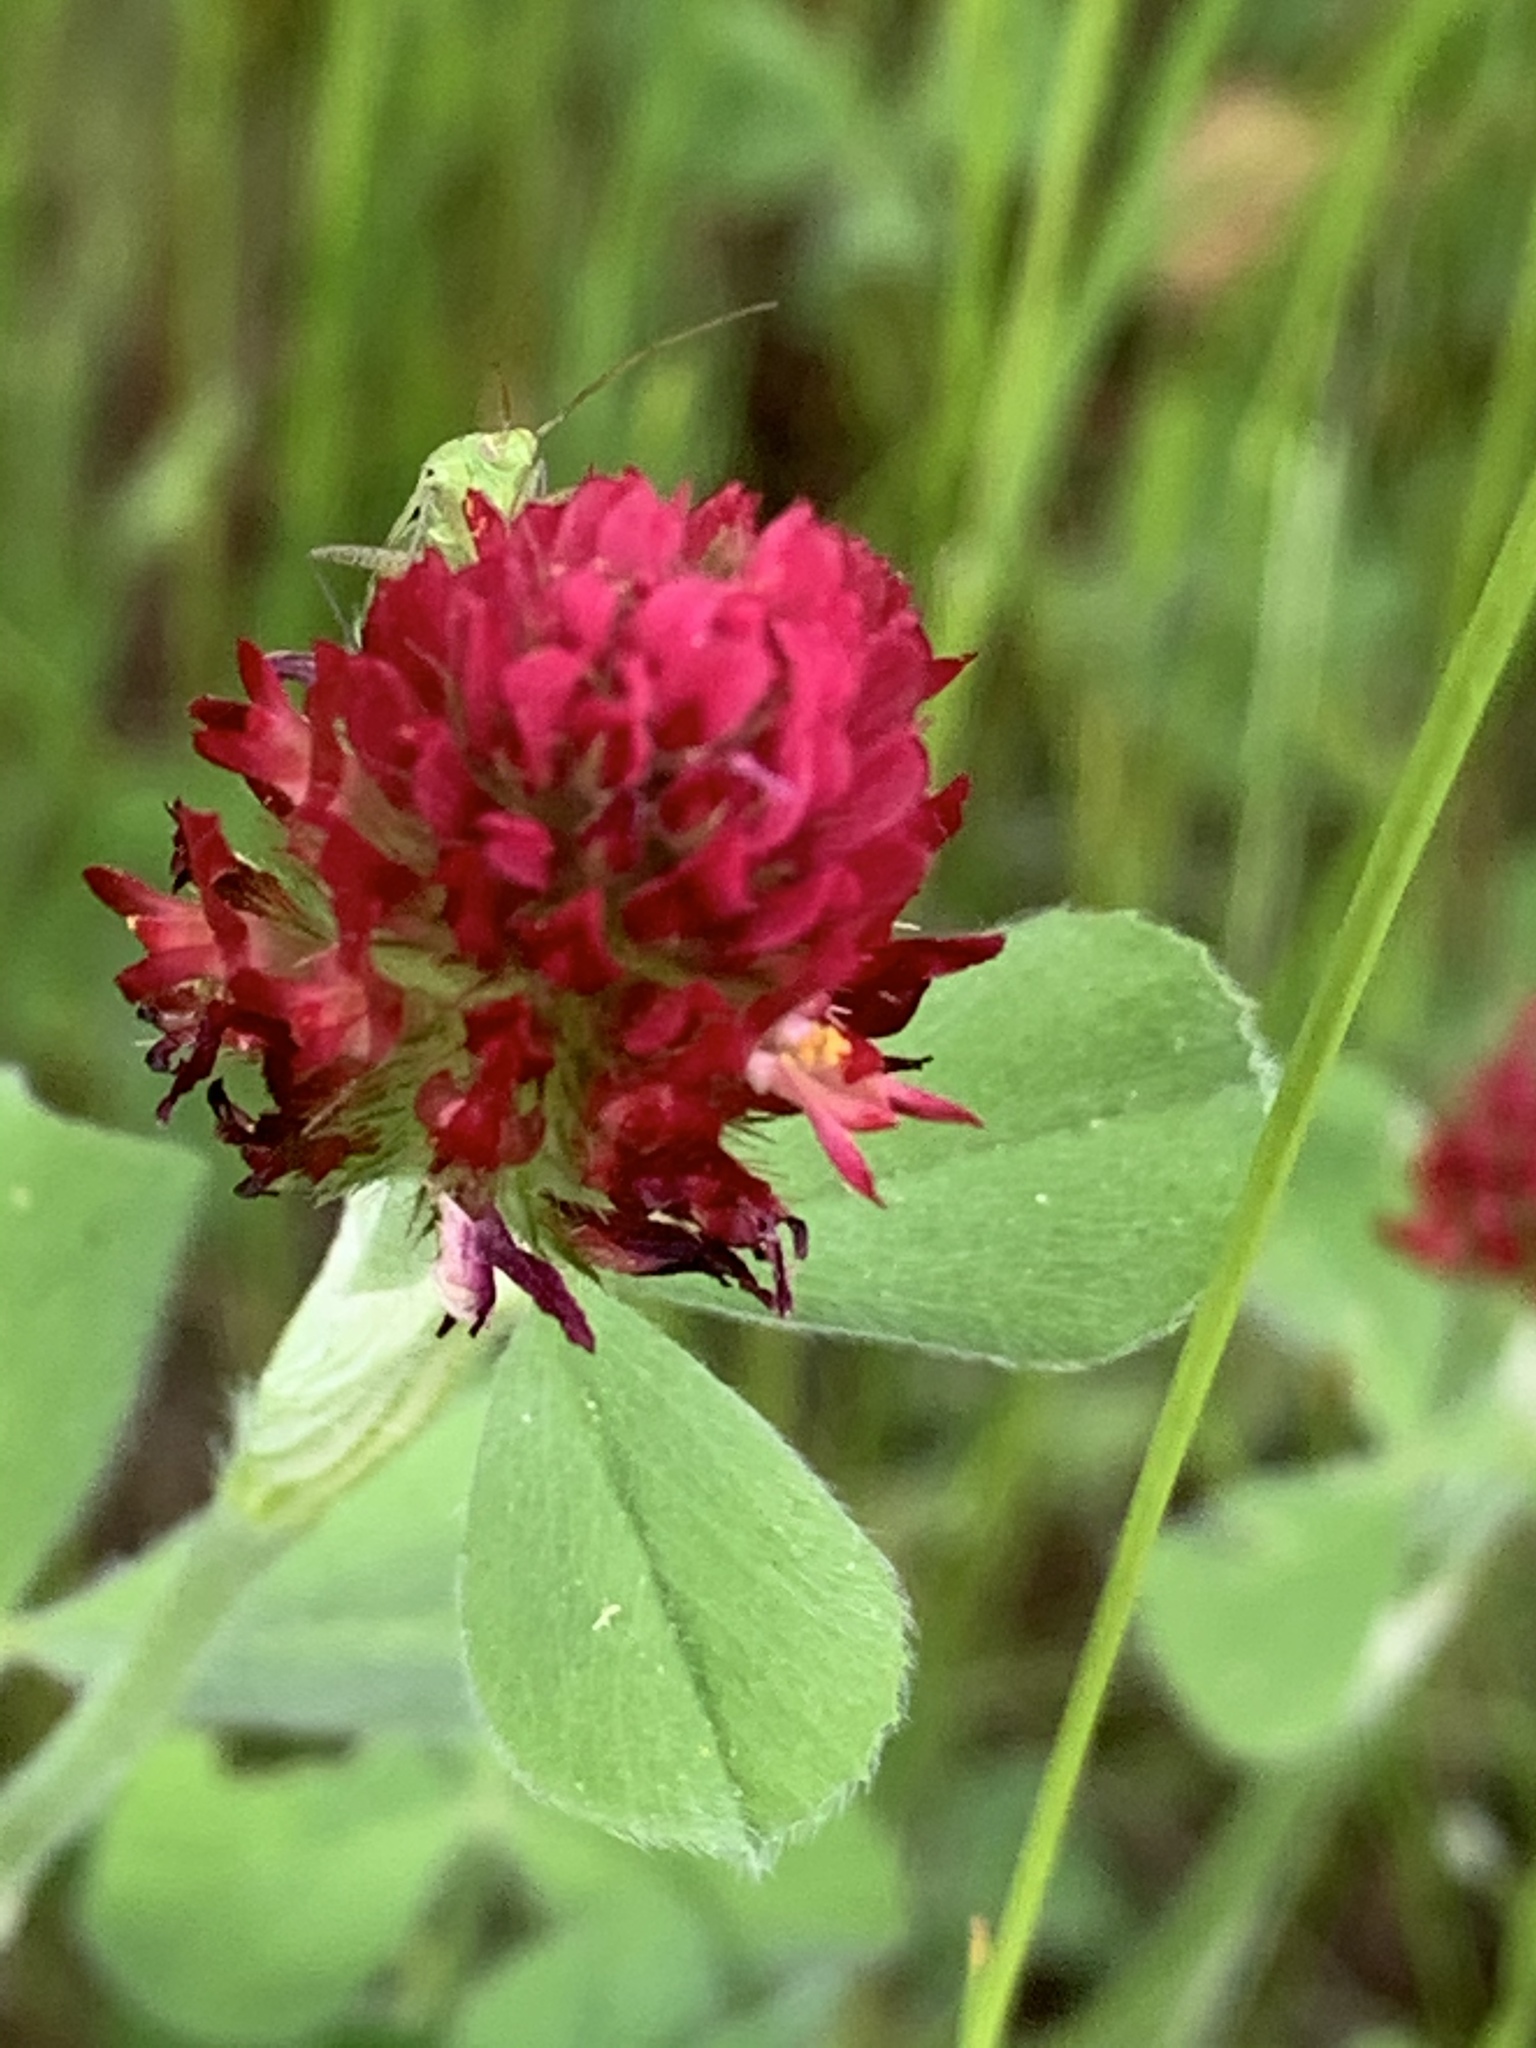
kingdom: Plantae
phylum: Tracheophyta
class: Magnoliopsida
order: Fabales
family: Fabaceae
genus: Trifolium
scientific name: Trifolium incarnatum
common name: Crimson clover
